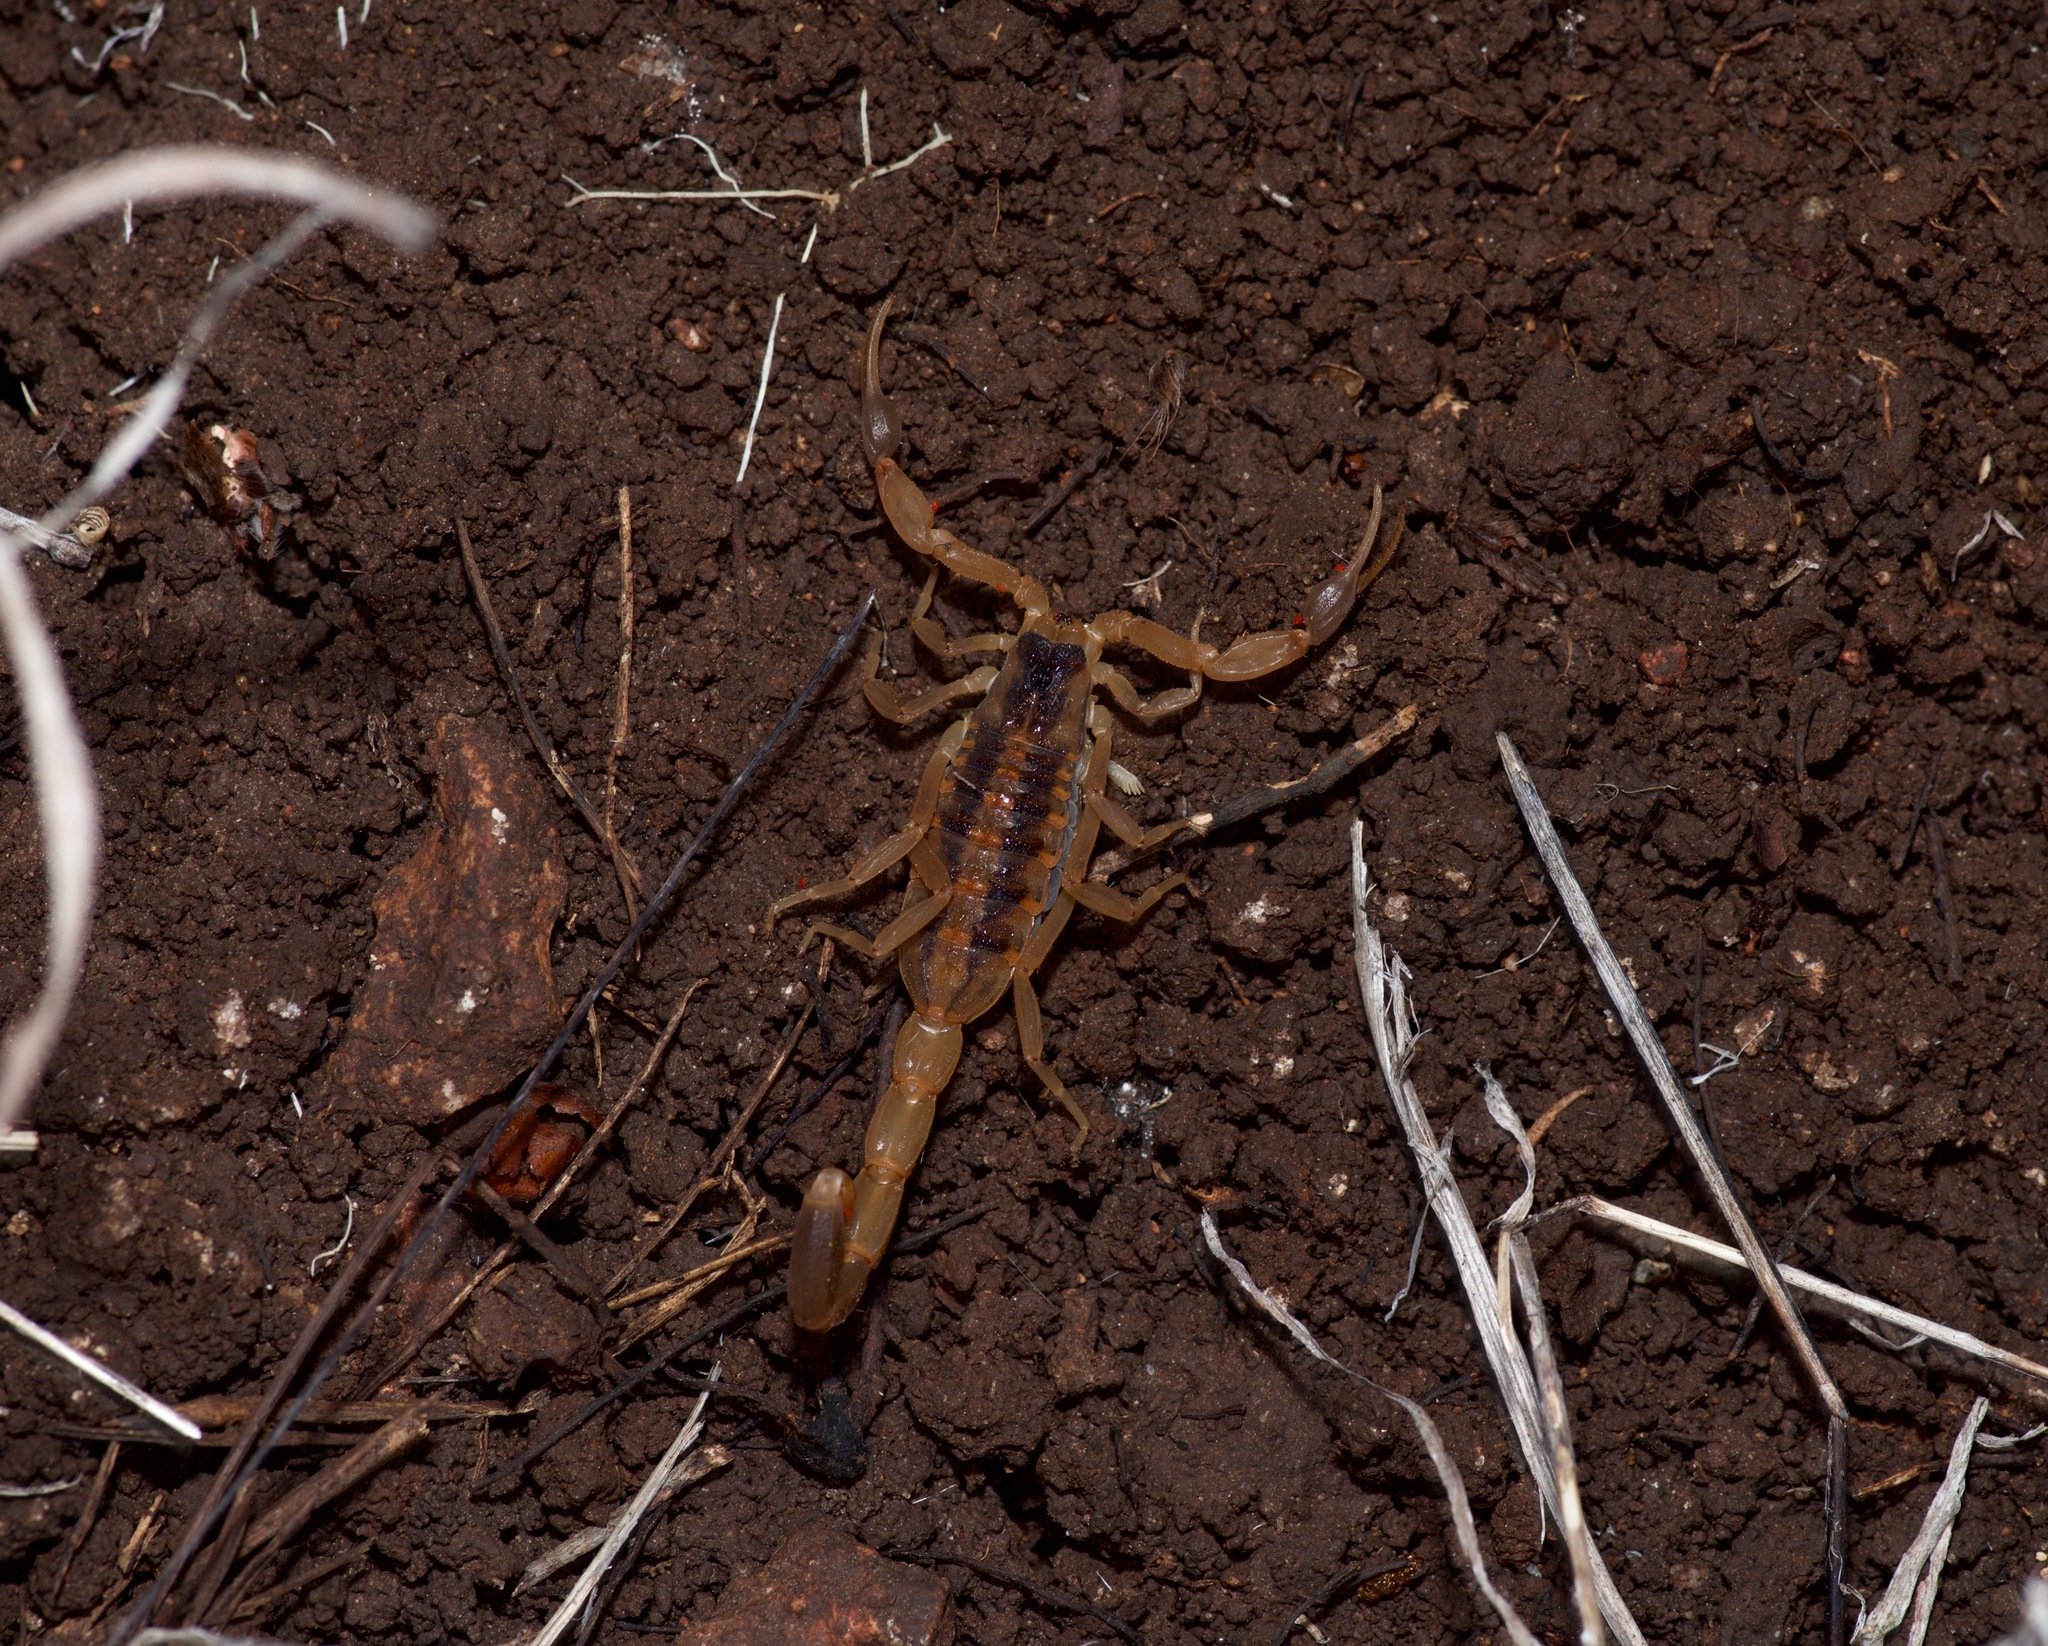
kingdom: Animalia
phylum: Arthropoda
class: Arachnida
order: Scorpiones
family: Buthidae
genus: Centruroides
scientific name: Centruroides vittatus
